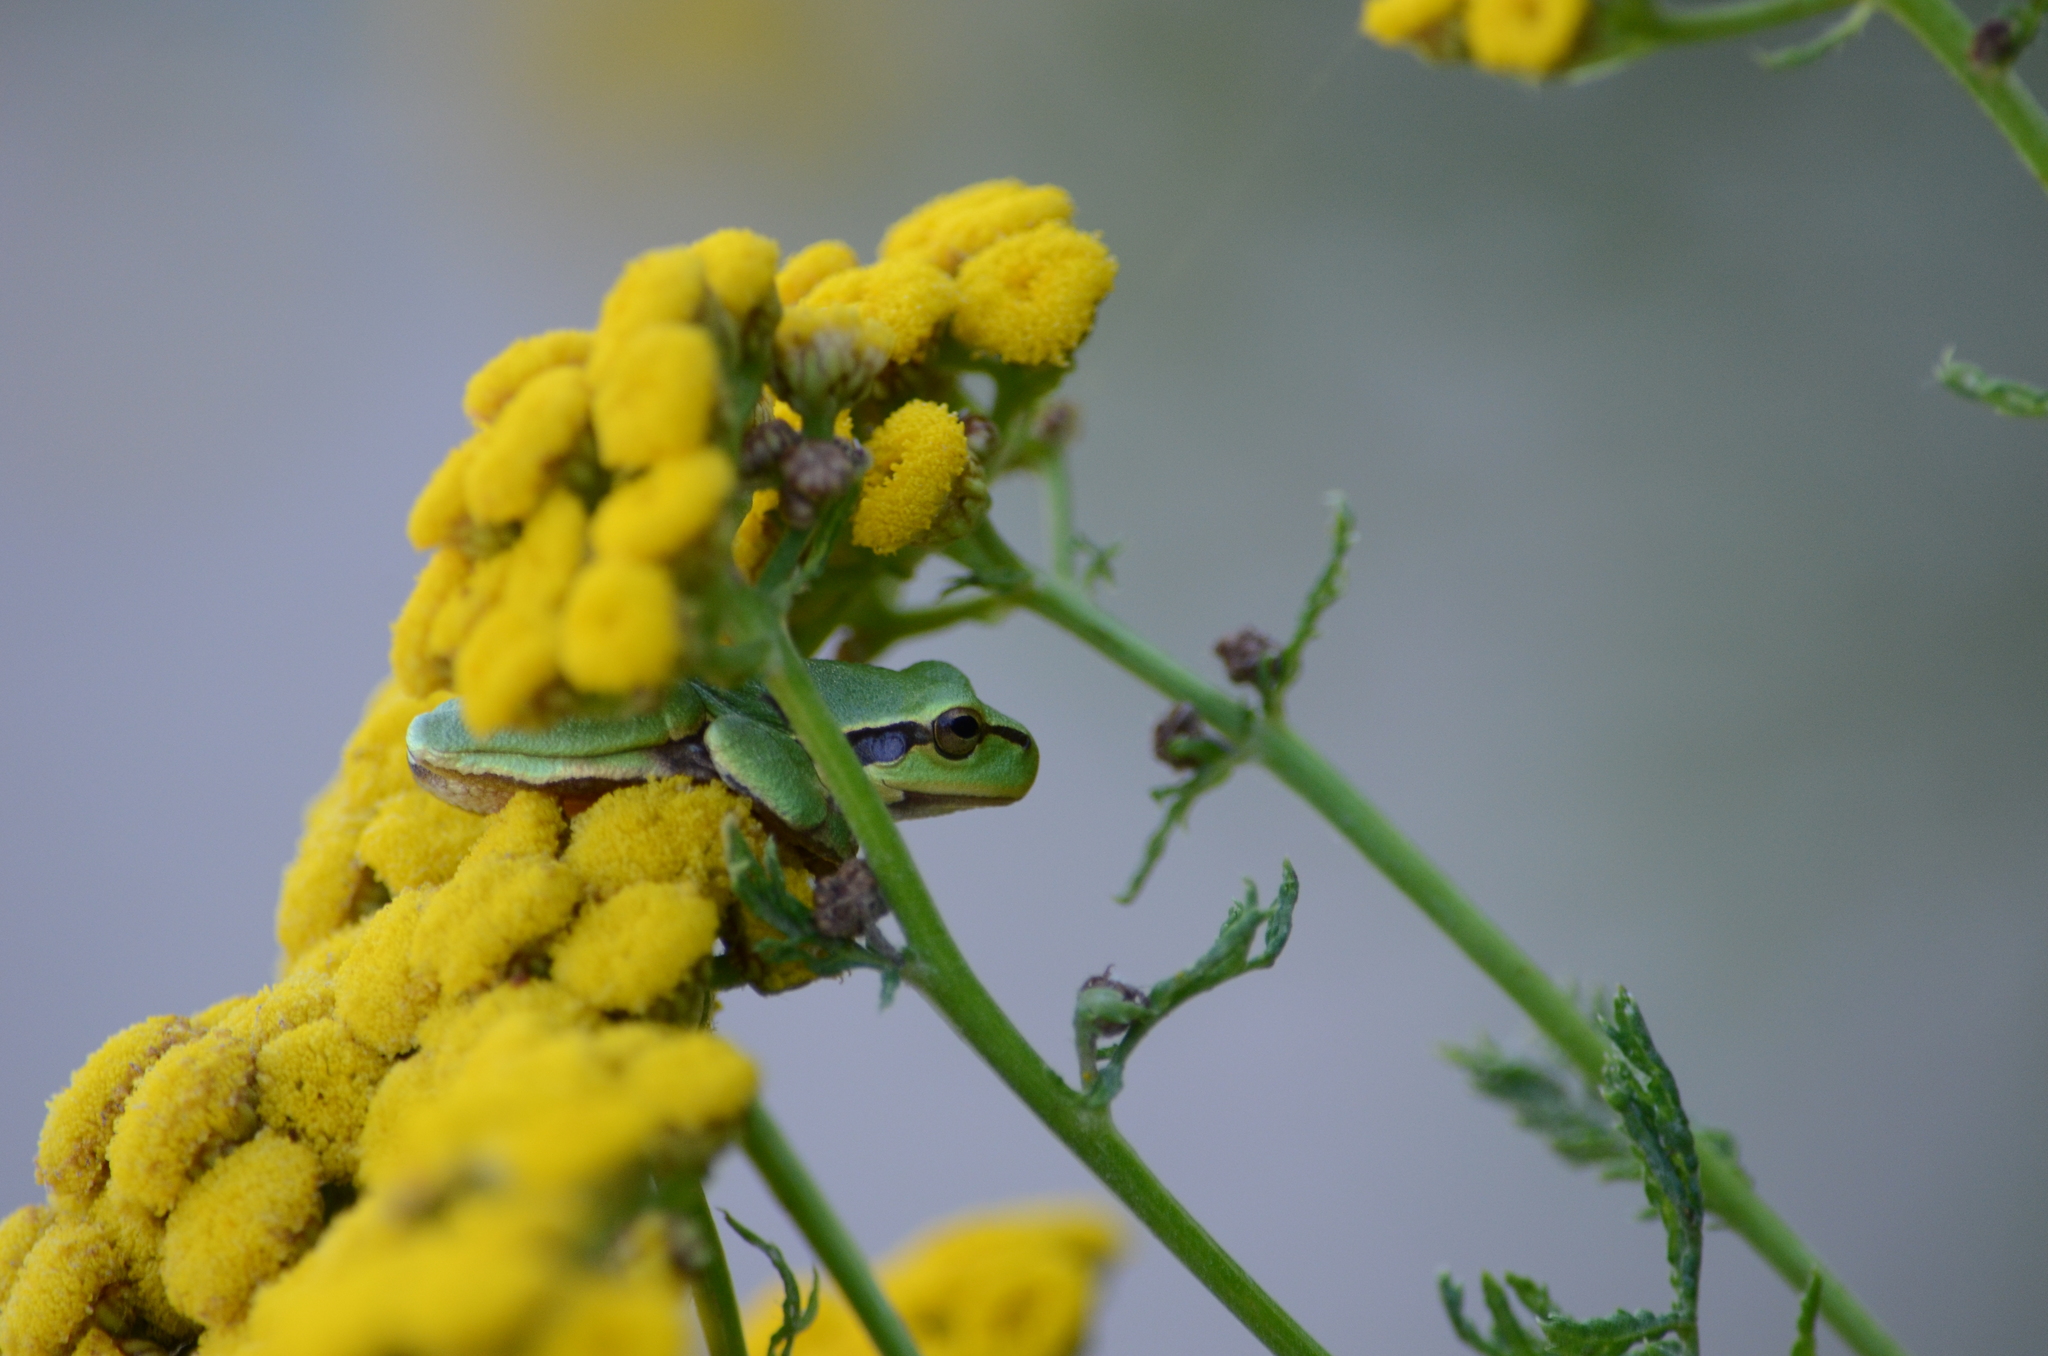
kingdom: Animalia
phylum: Chordata
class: Amphibia
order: Anura
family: Hylidae
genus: Hyla
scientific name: Hyla arborea
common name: Common tree frog
